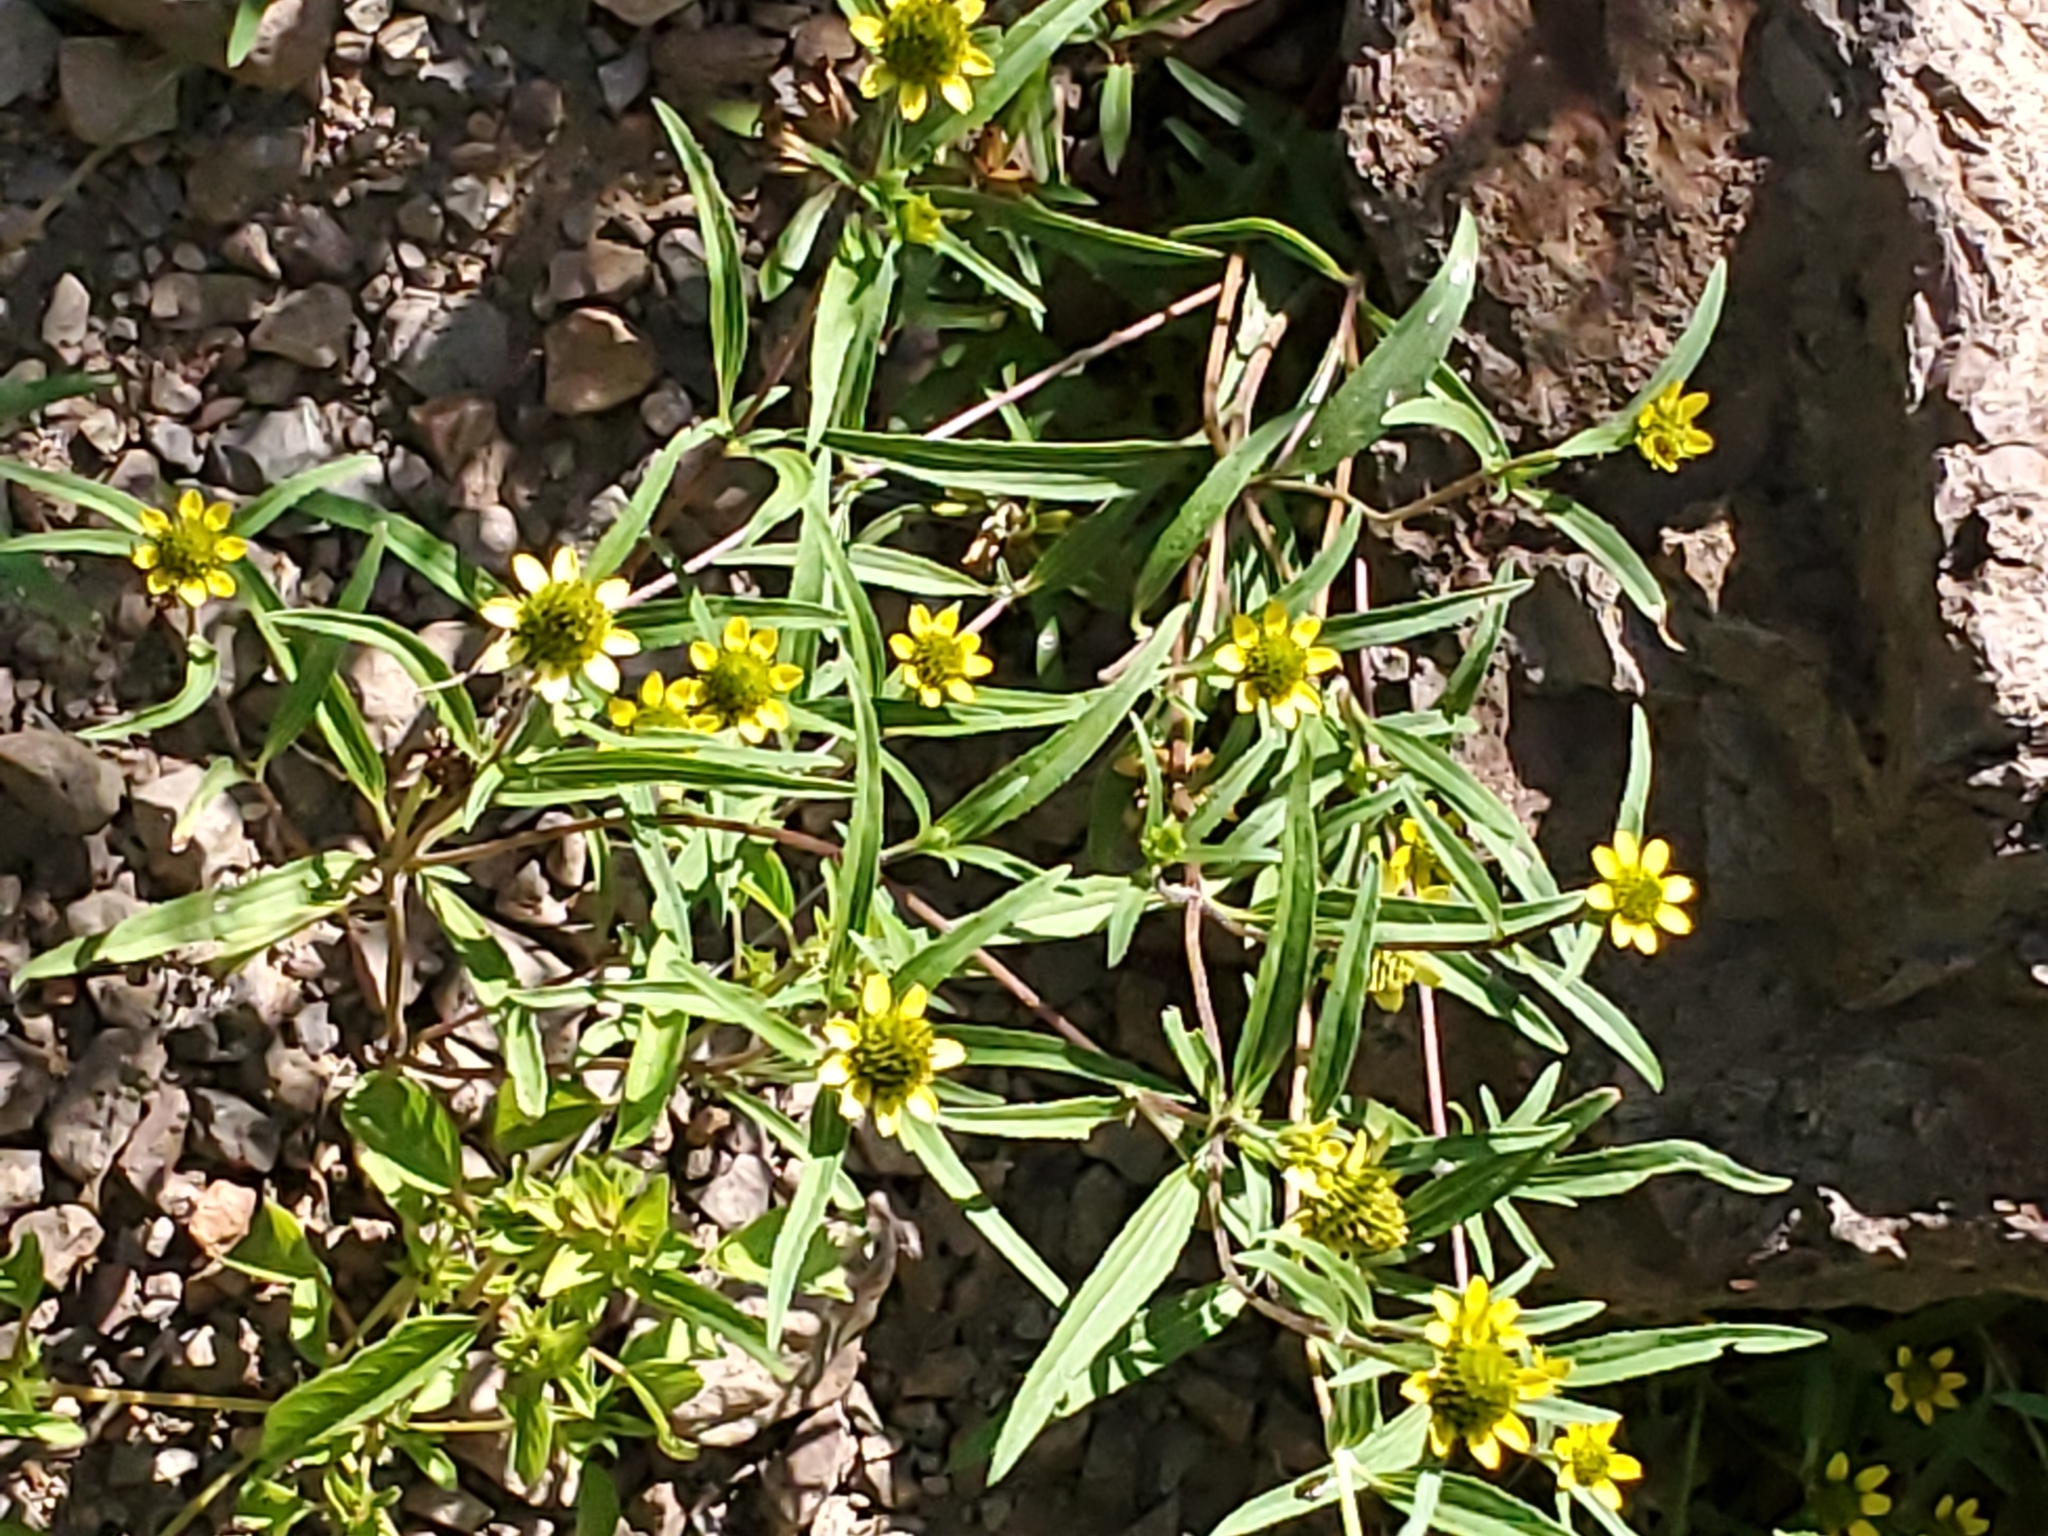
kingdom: Plantae
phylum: Tracheophyta
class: Magnoliopsida
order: Asterales
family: Asteraceae
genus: Sanvitalia
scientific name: Sanvitalia abertii
